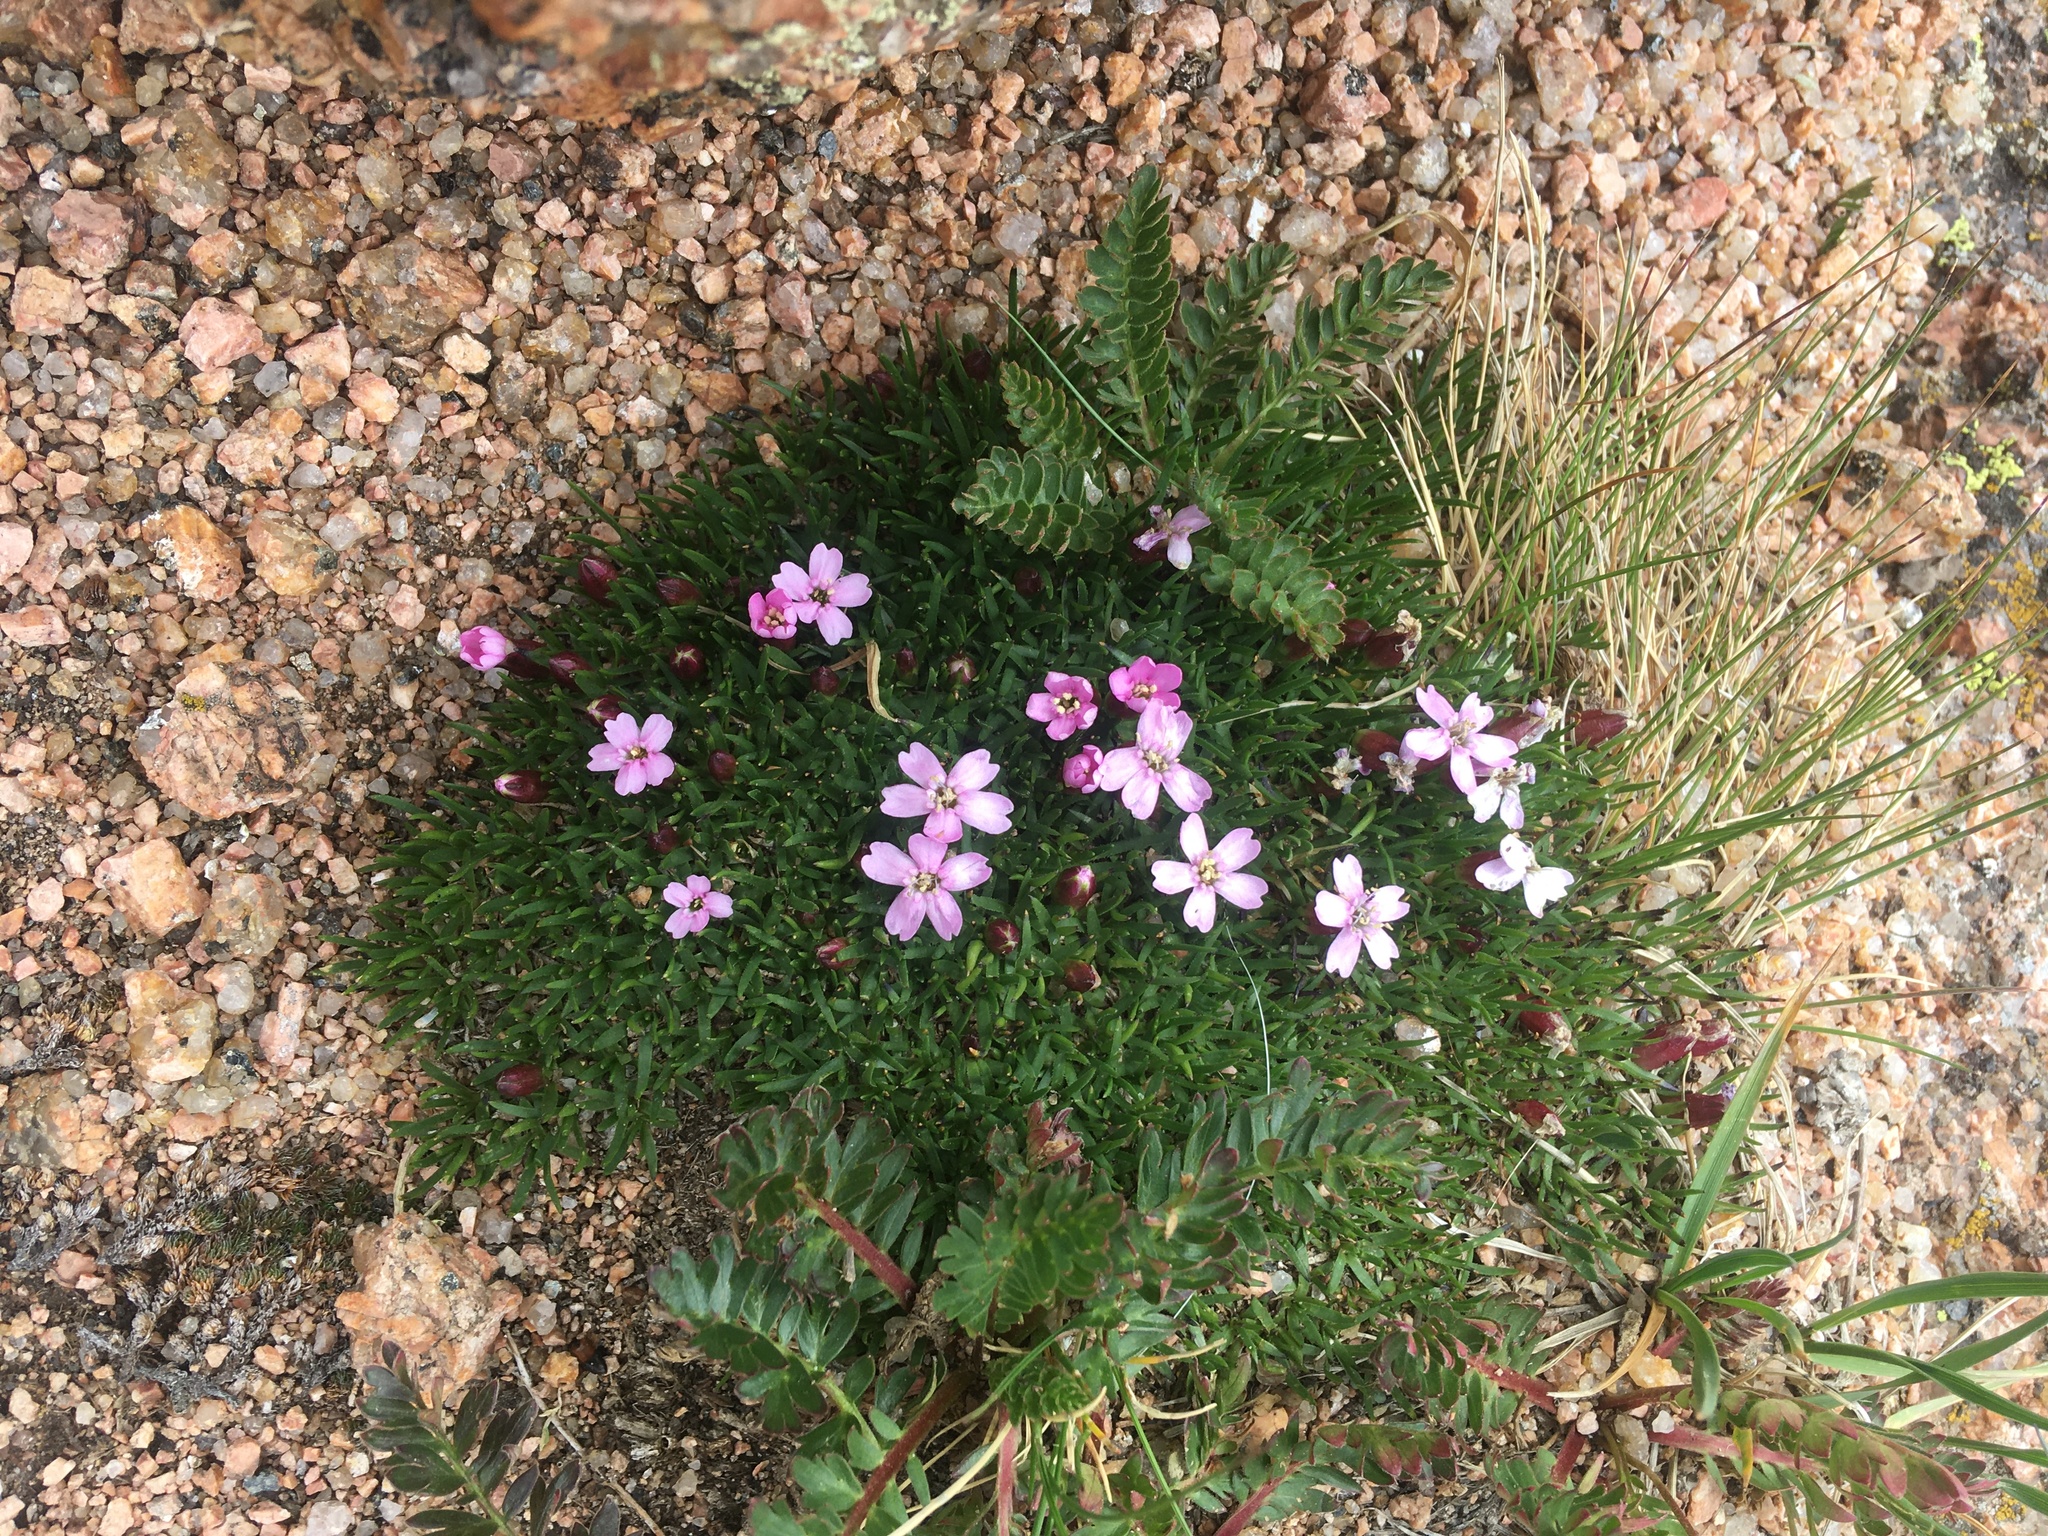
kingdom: Plantae
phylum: Tracheophyta
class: Magnoliopsida
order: Caryophyllales
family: Caryophyllaceae
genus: Silene
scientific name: Silene acaulis
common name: Moss campion
